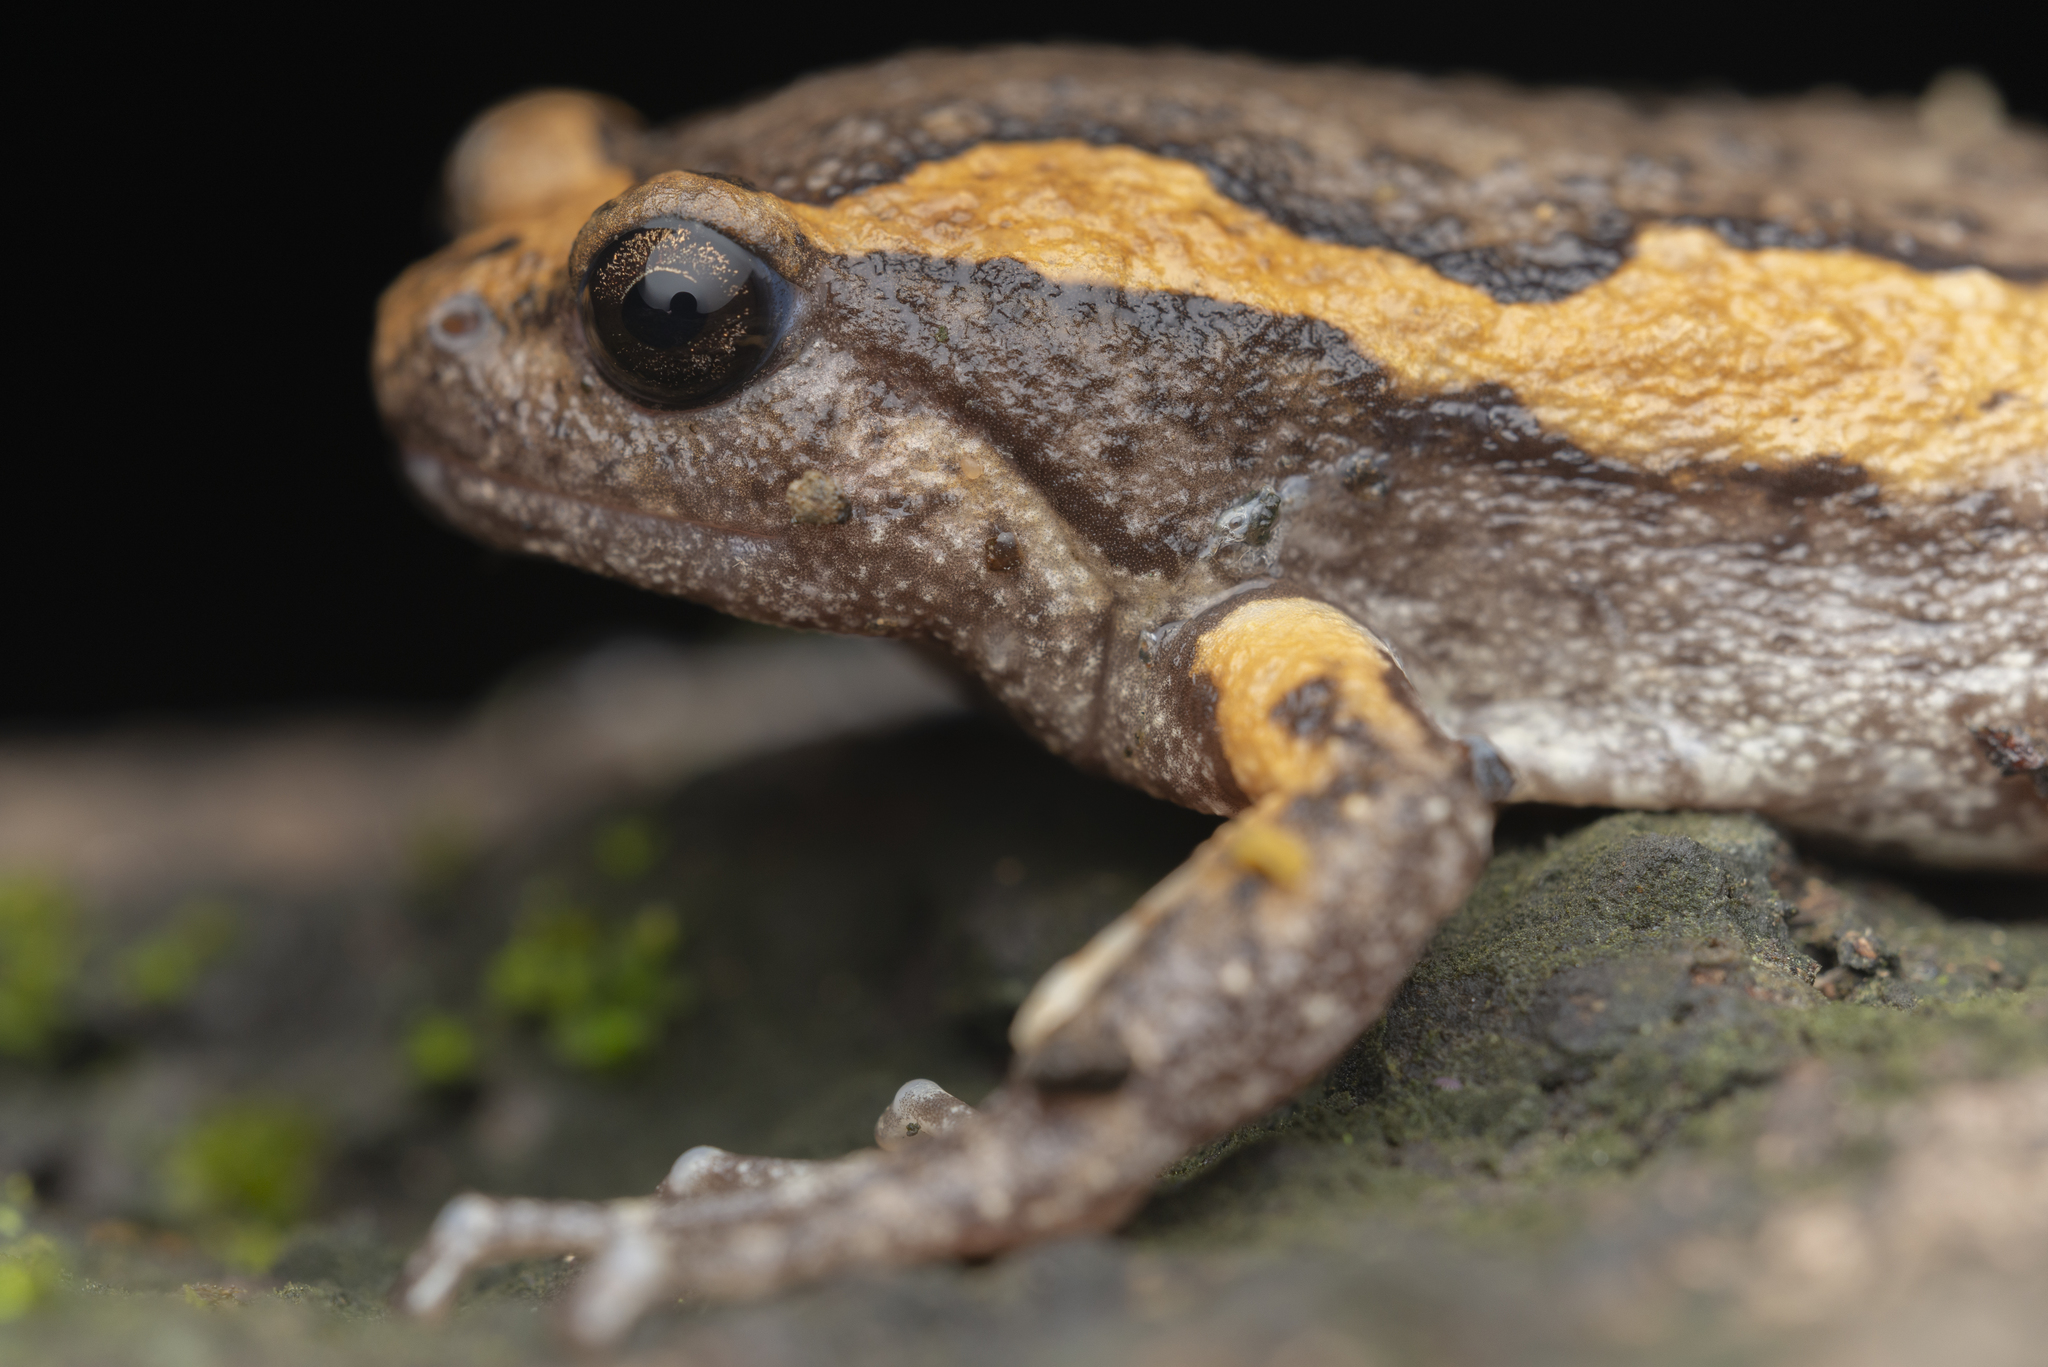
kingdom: Animalia
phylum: Chordata
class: Amphibia
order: Anura
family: Microhylidae
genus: Kaloula
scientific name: Kaloula pulchra
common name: Common,banded bullfrog
